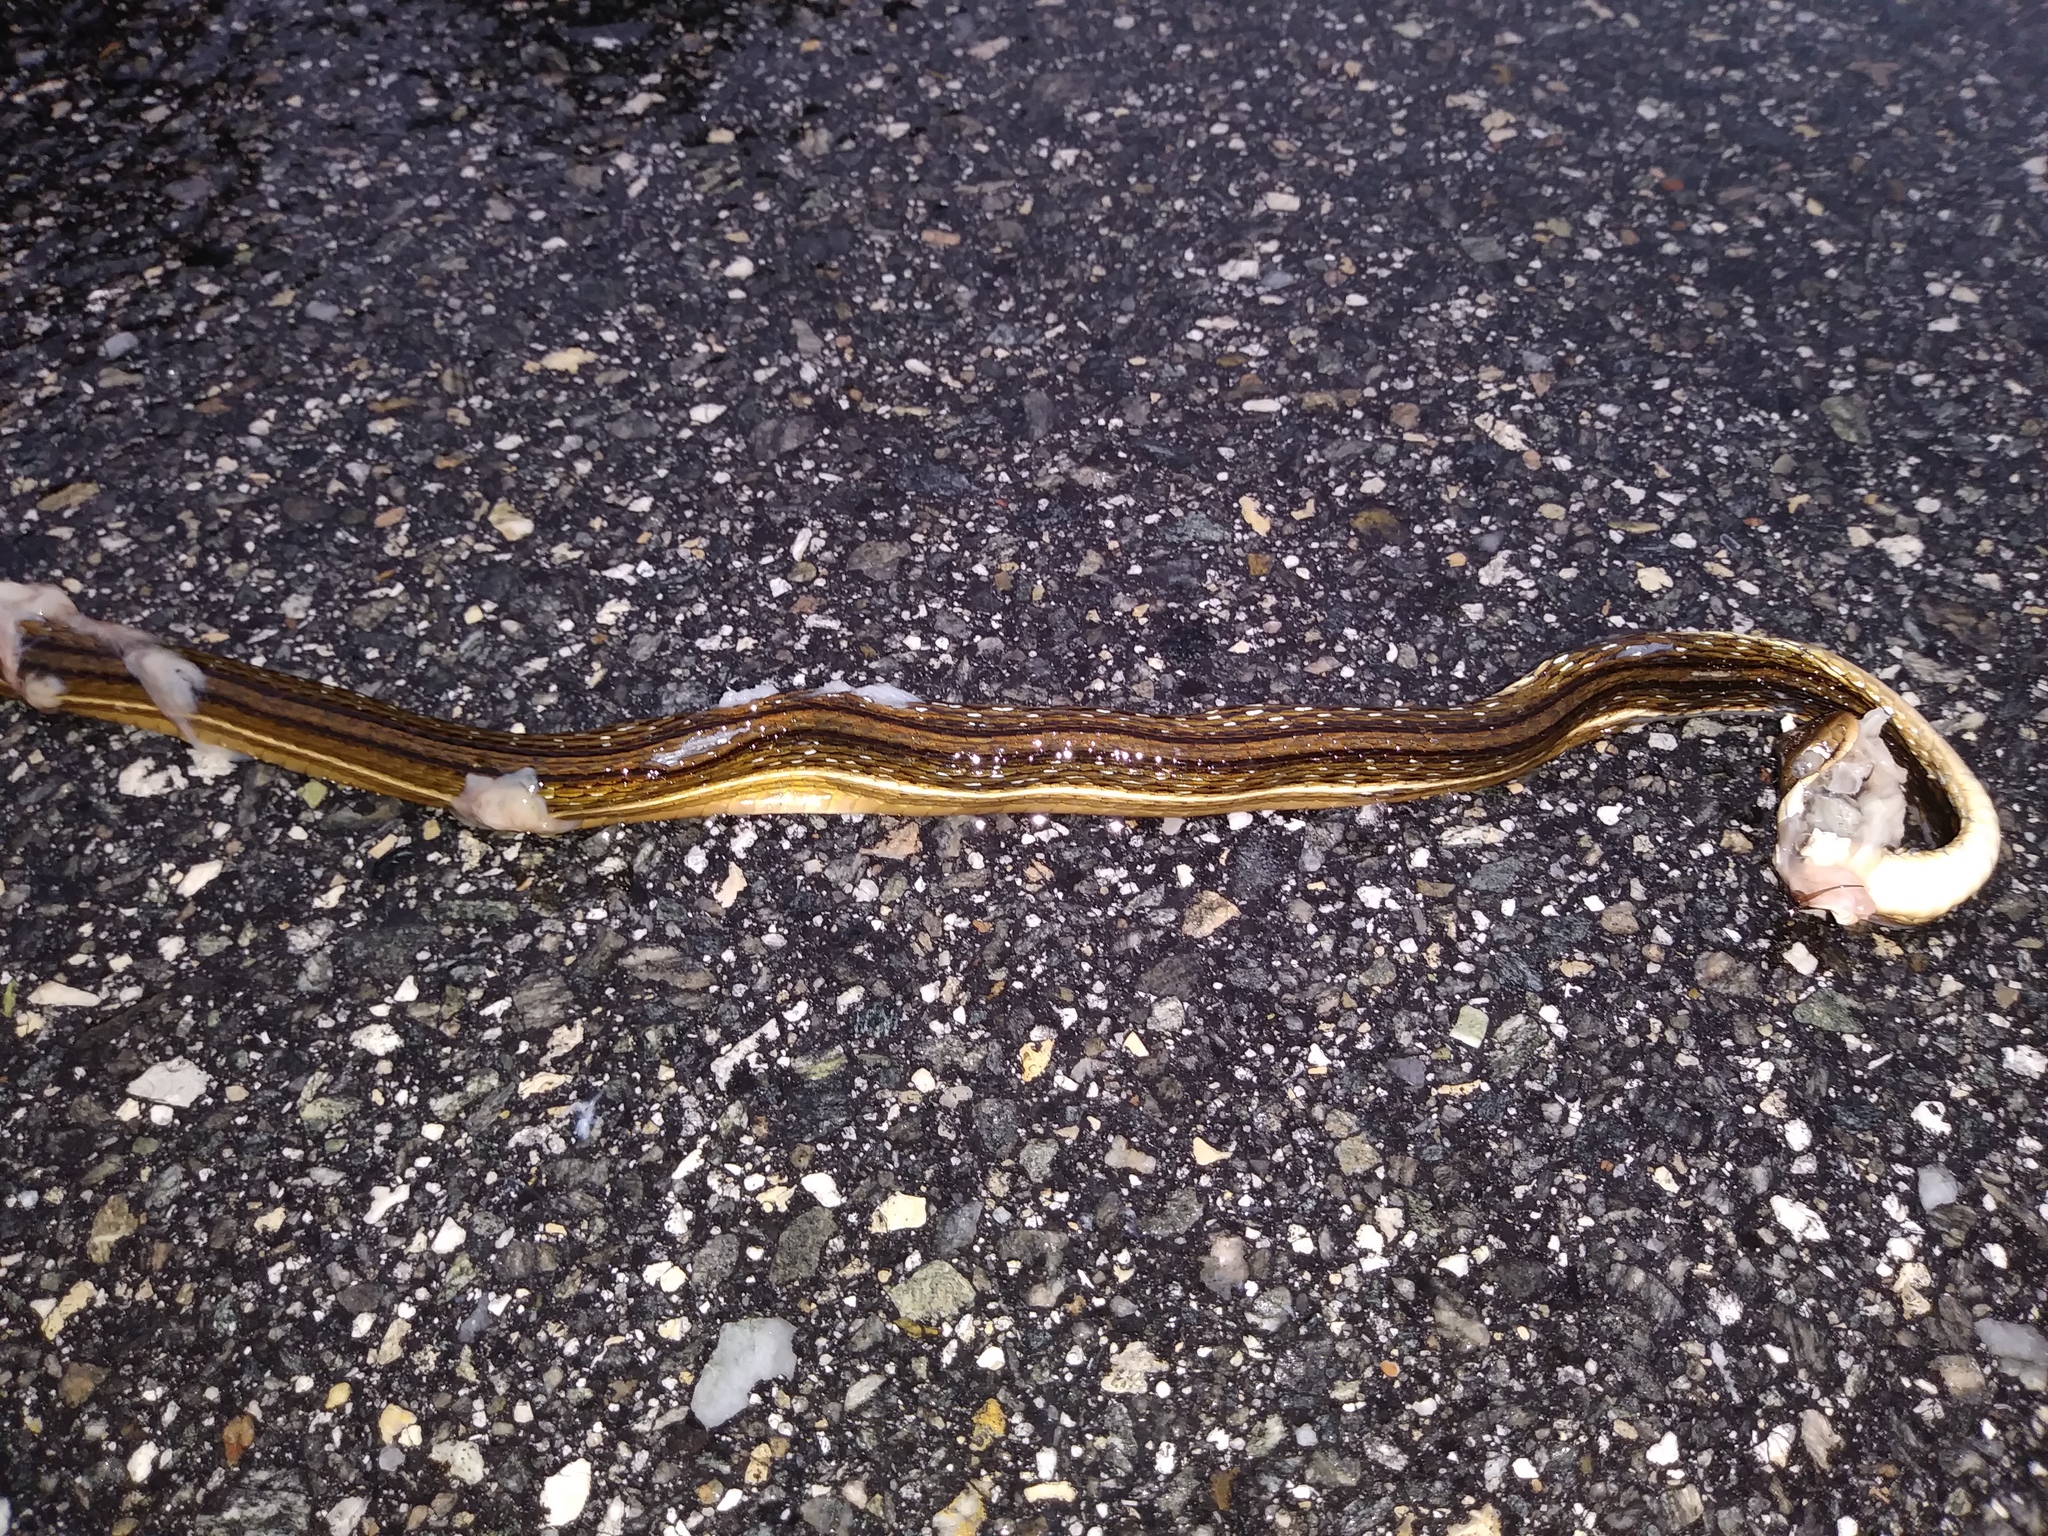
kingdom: Animalia
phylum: Chordata
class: Squamata
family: Colubridae
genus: Thamnophis
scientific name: Thamnophis saurita
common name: Eastern ribbonsnake
